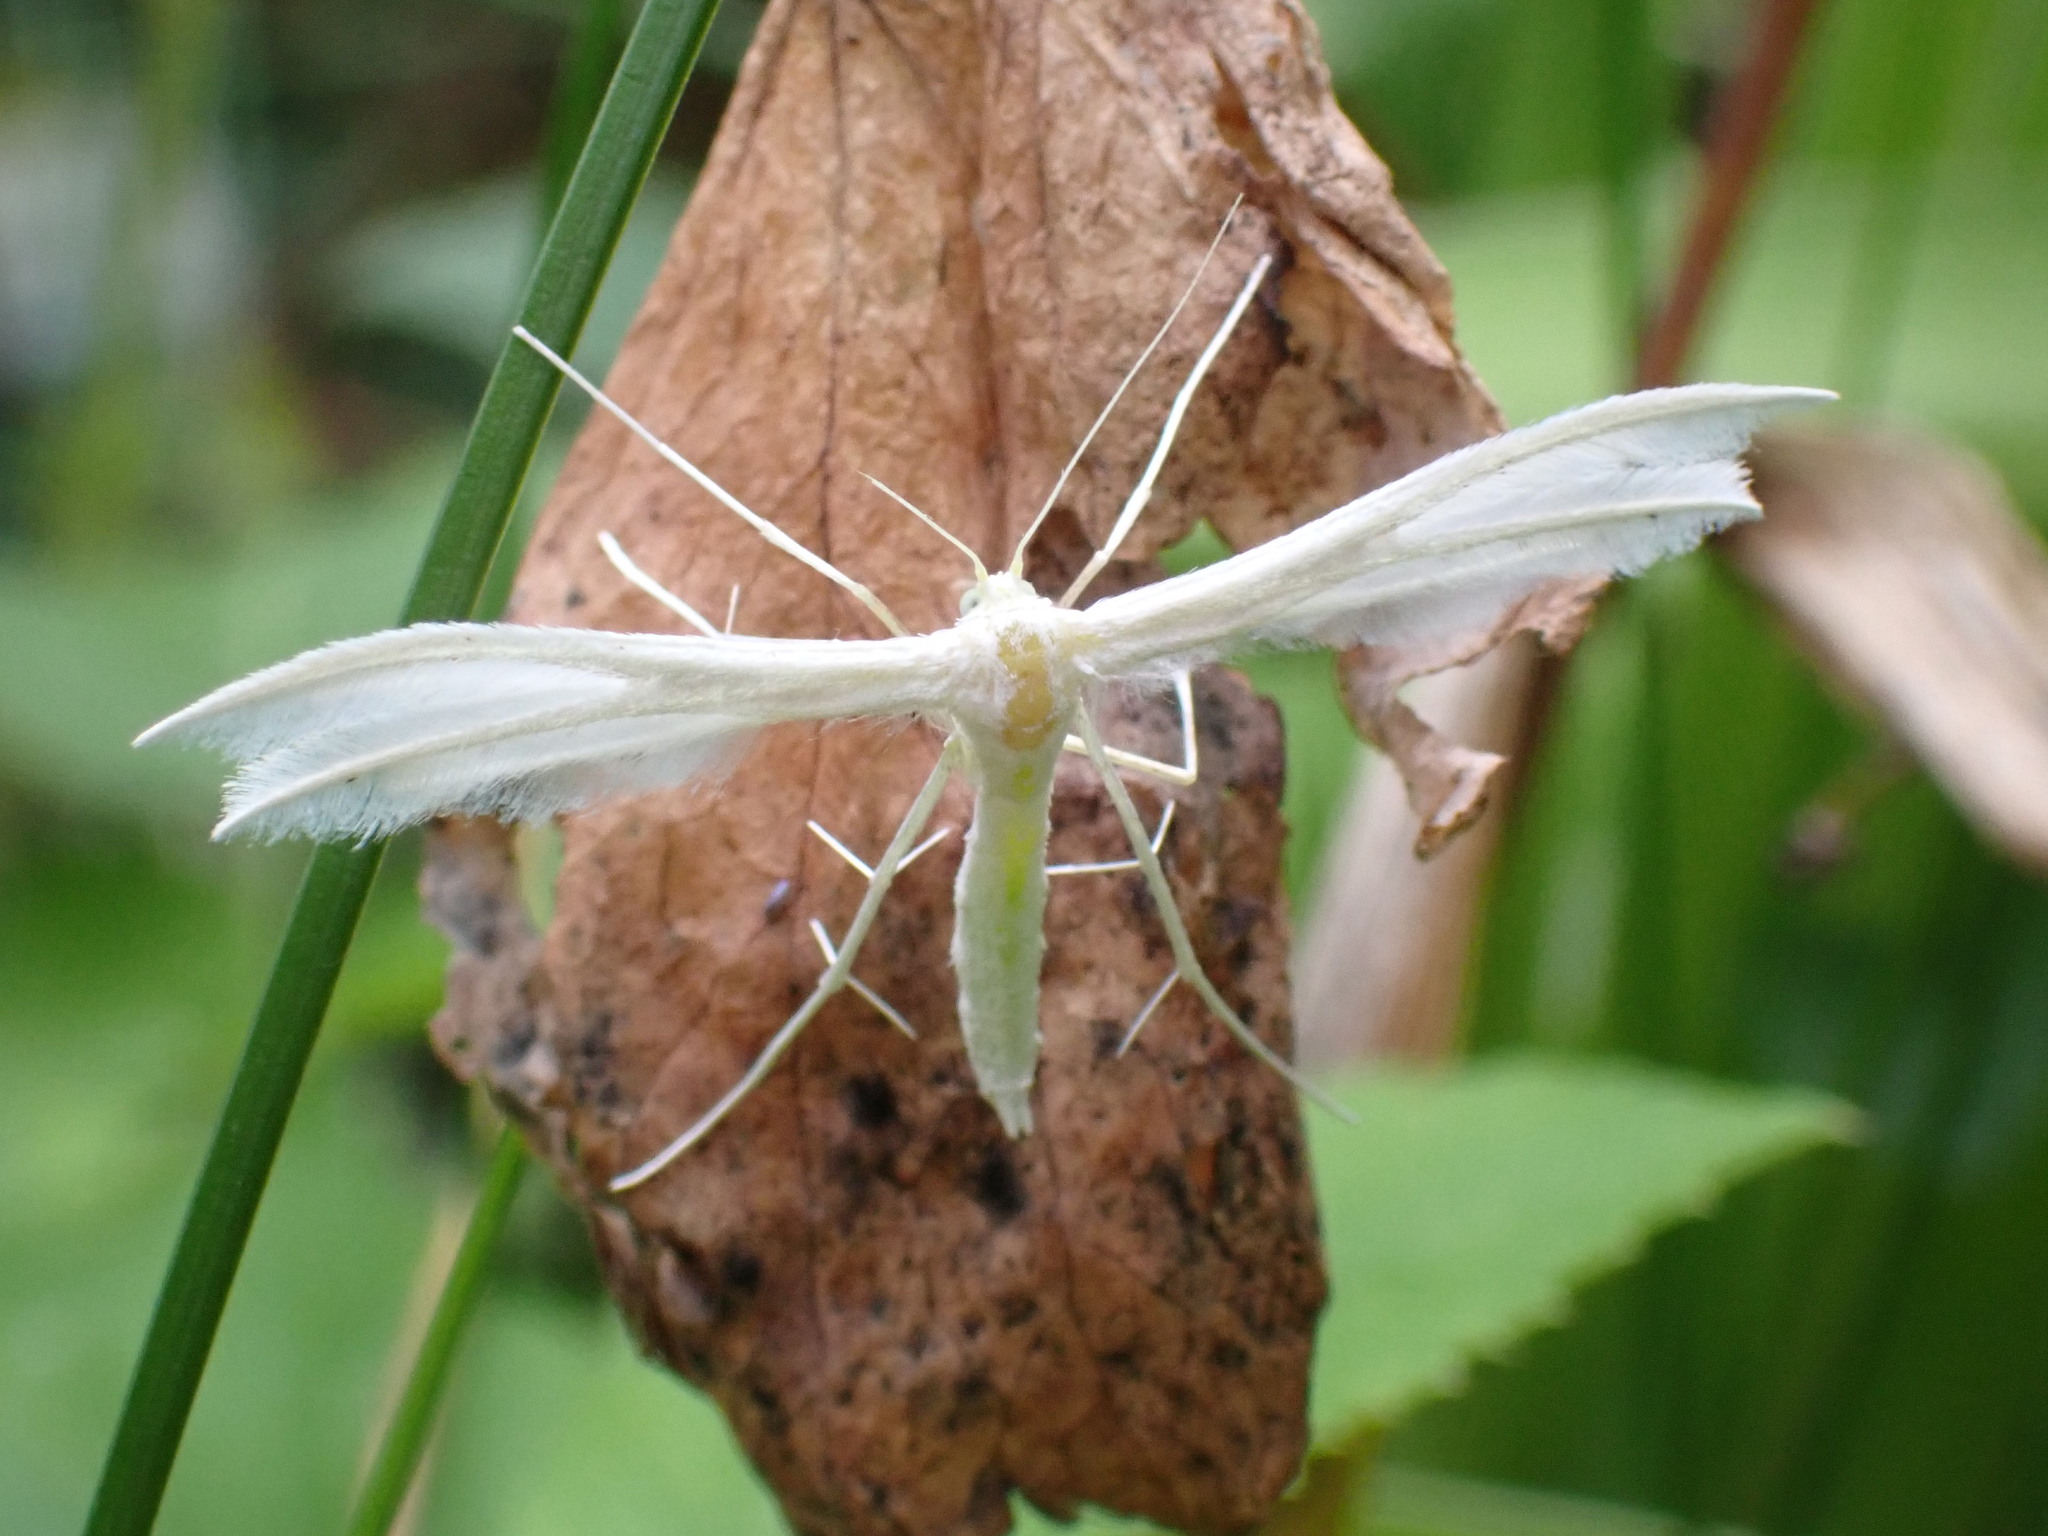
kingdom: Animalia
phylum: Arthropoda
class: Insecta
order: Lepidoptera
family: Pterophoridae
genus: Pterophorus
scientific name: Pterophorus pentadactyla
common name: White plume moth
